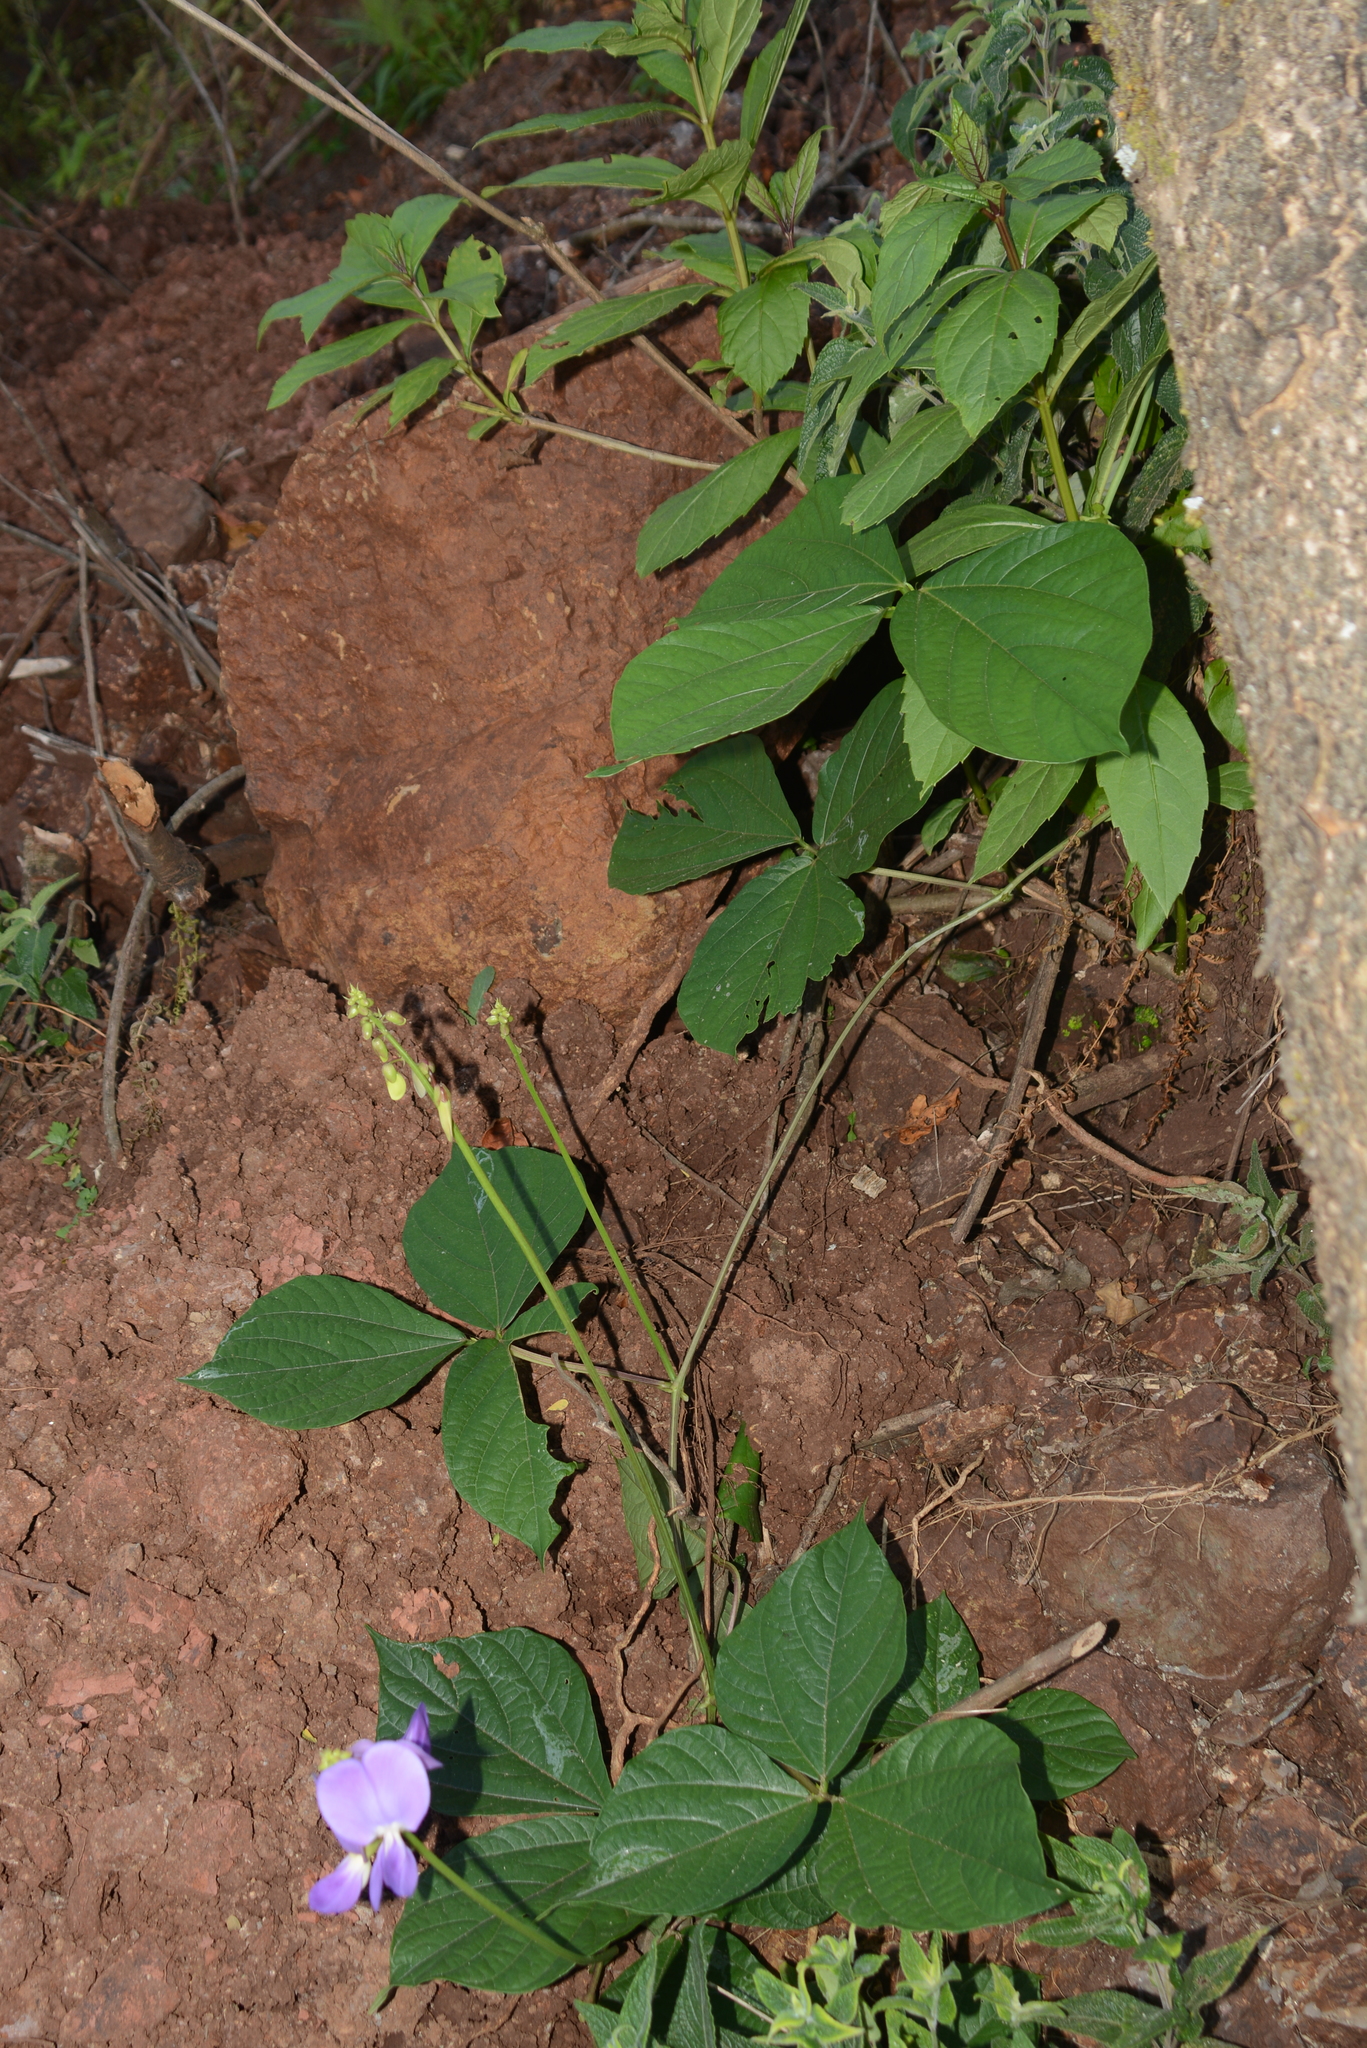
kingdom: Plantae
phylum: Tracheophyta
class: Magnoliopsida
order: Fabales
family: Fabaceae
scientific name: Fabaceae
